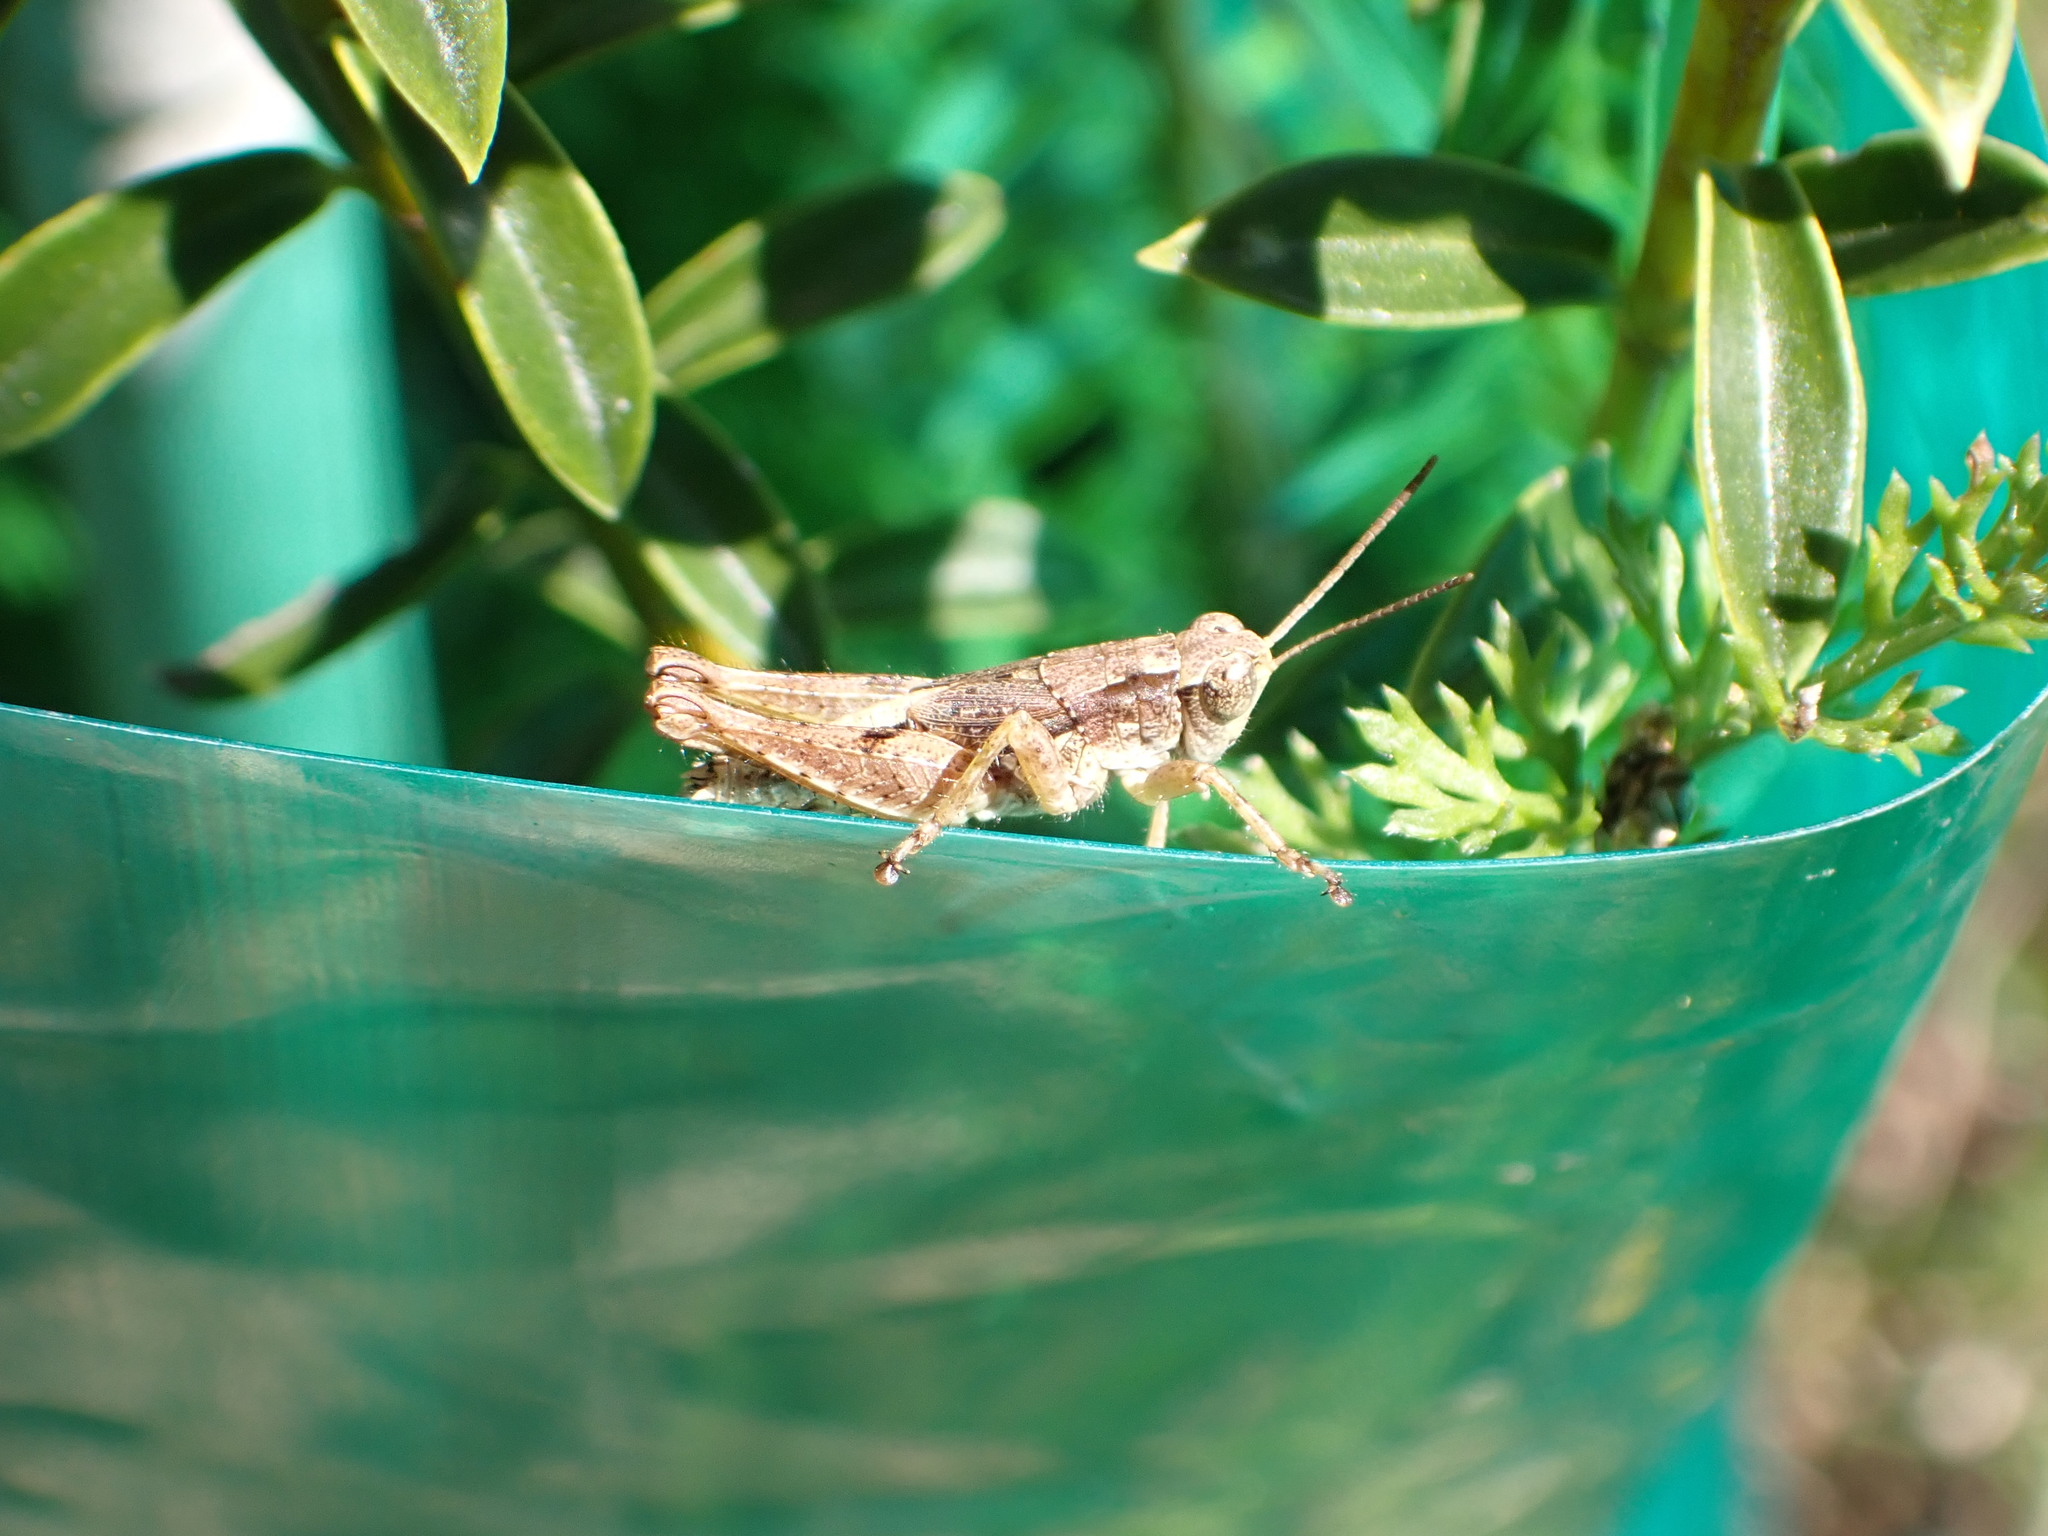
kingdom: Animalia
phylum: Arthropoda
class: Insecta
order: Orthoptera
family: Acrididae
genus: Phaulacridium
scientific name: Phaulacridium marginale
